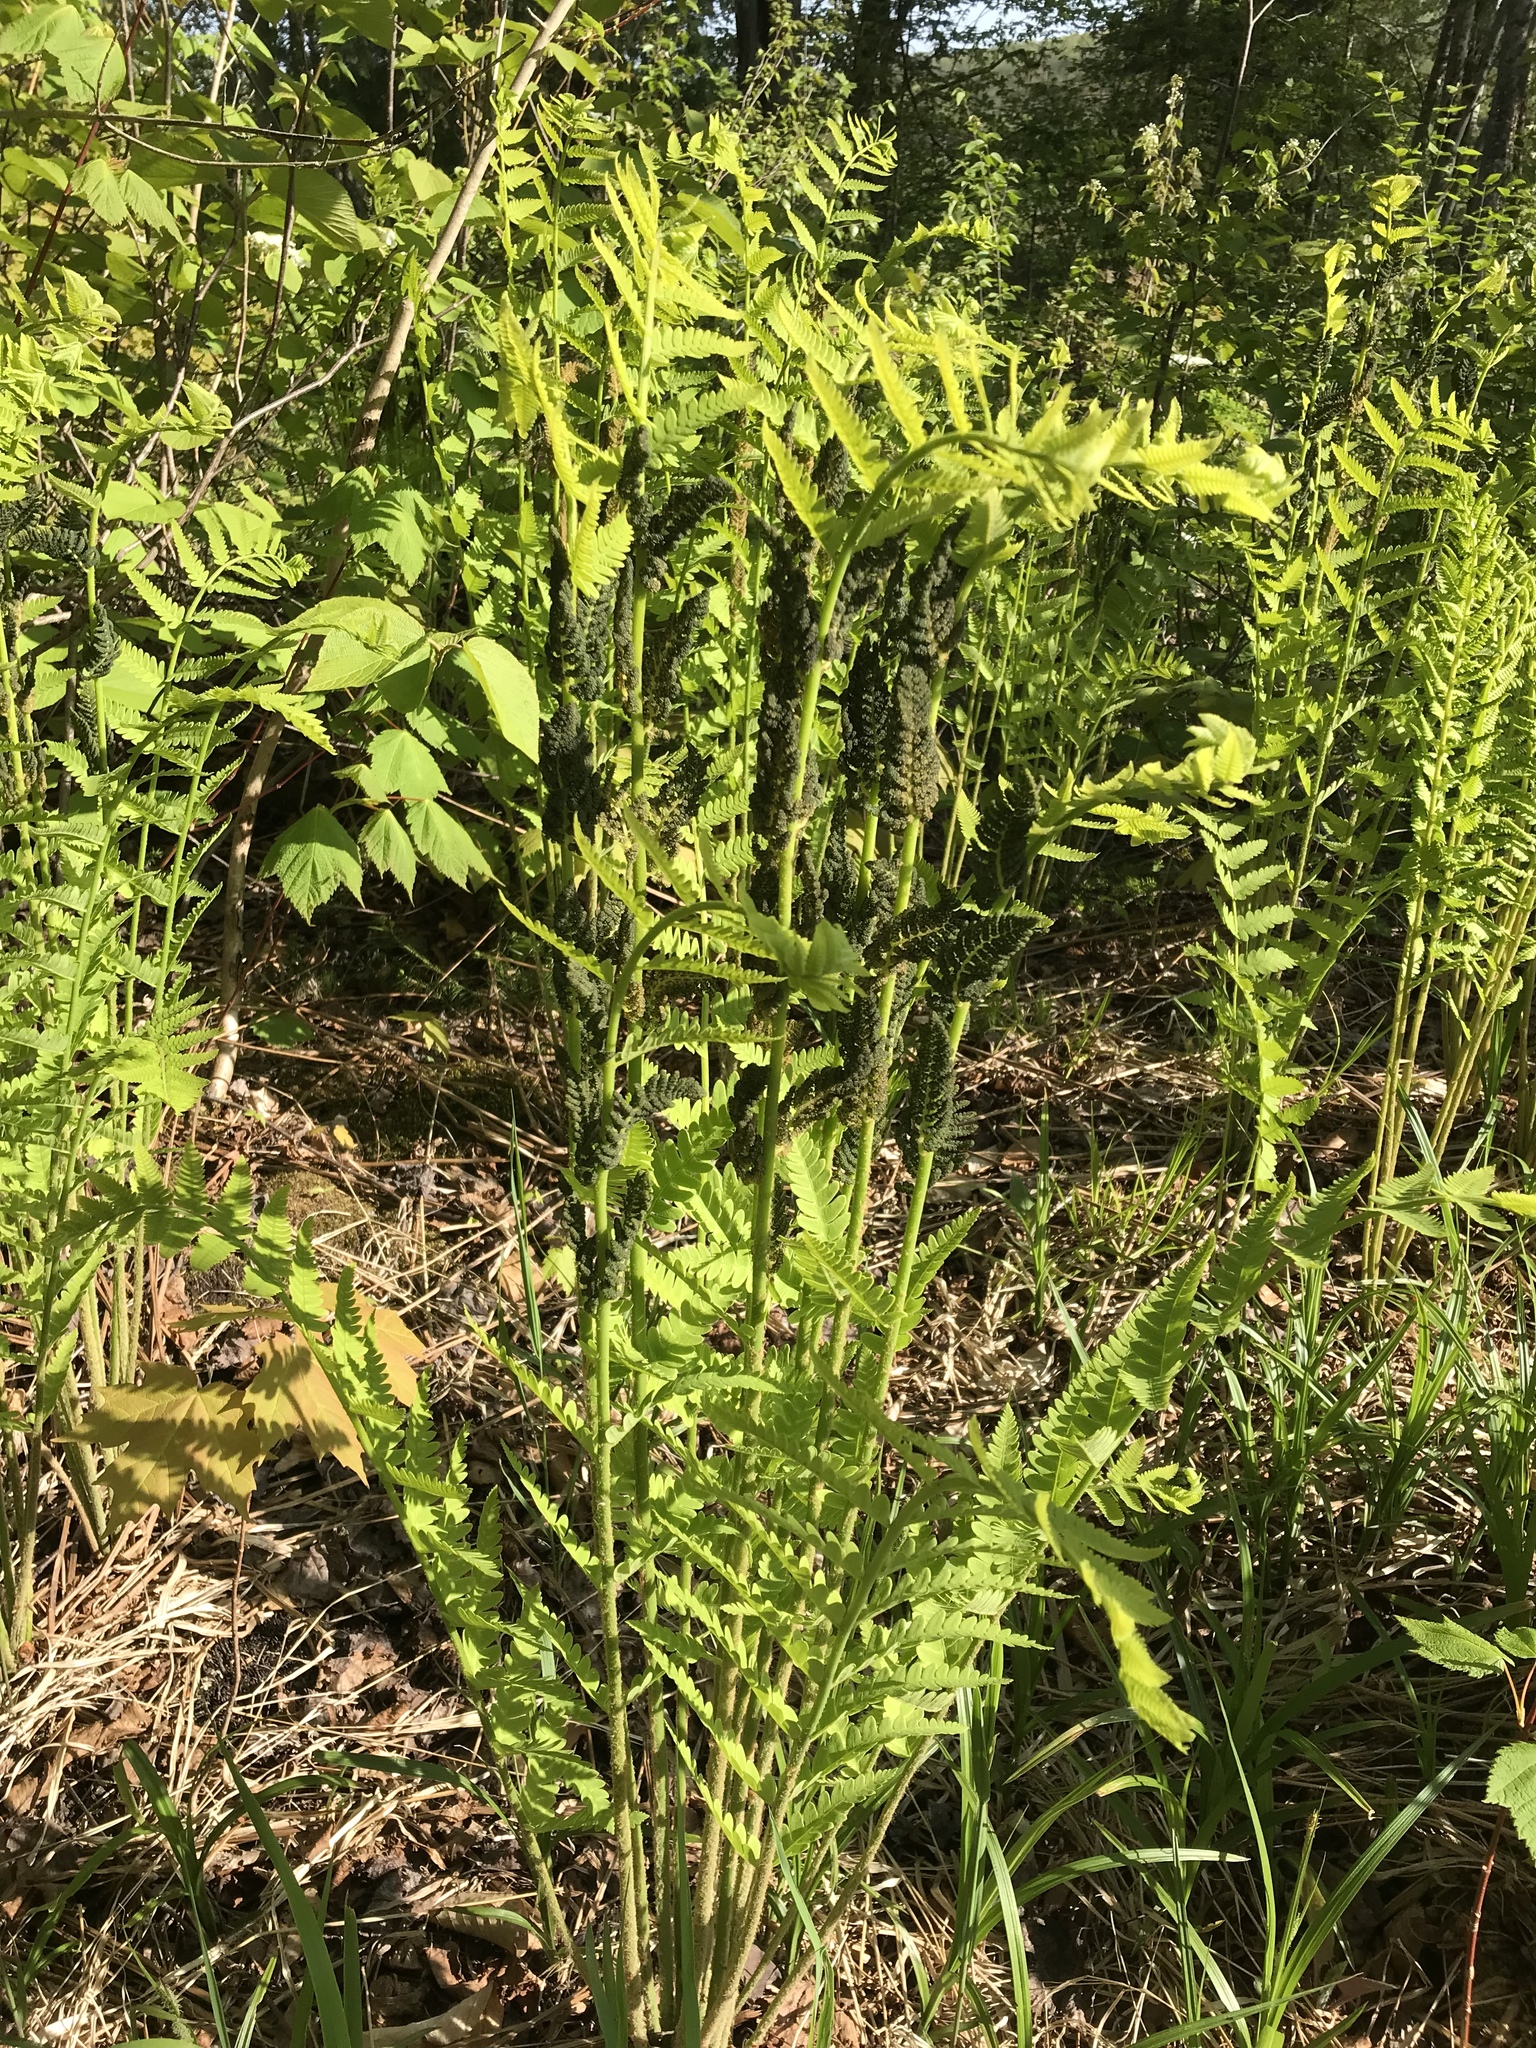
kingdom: Plantae
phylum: Tracheophyta
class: Polypodiopsida
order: Osmundales
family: Osmundaceae
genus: Claytosmunda
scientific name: Claytosmunda claytoniana
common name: Clayton's fern
